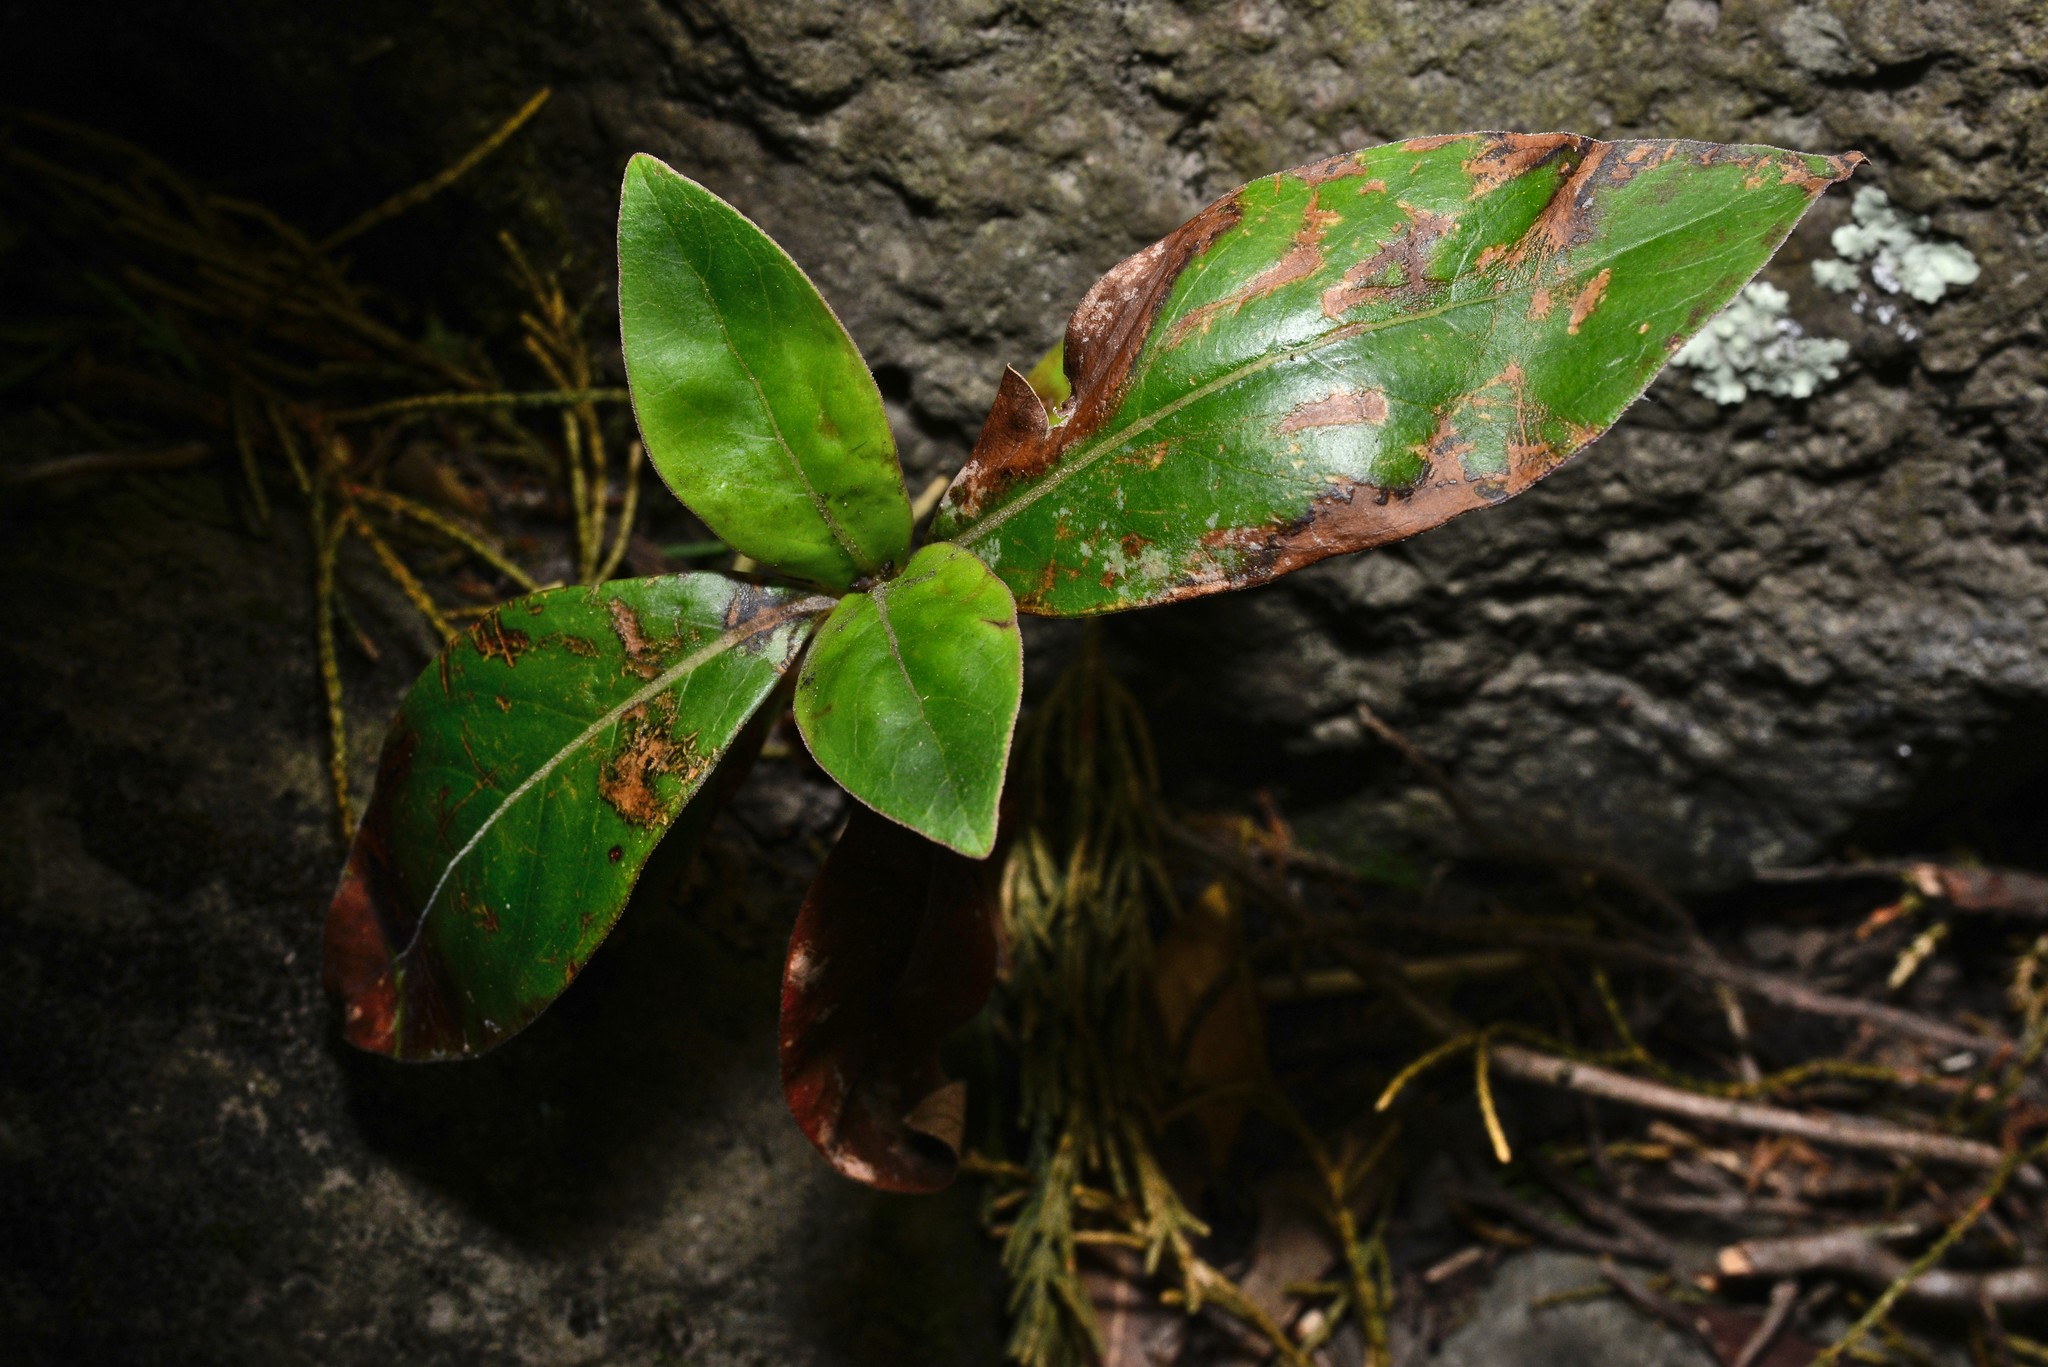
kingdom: Plantae
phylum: Tracheophyta
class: Magnoliopsida
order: Gentianales
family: Rubiaceae
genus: Coprosma
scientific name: Coprosma robusta
